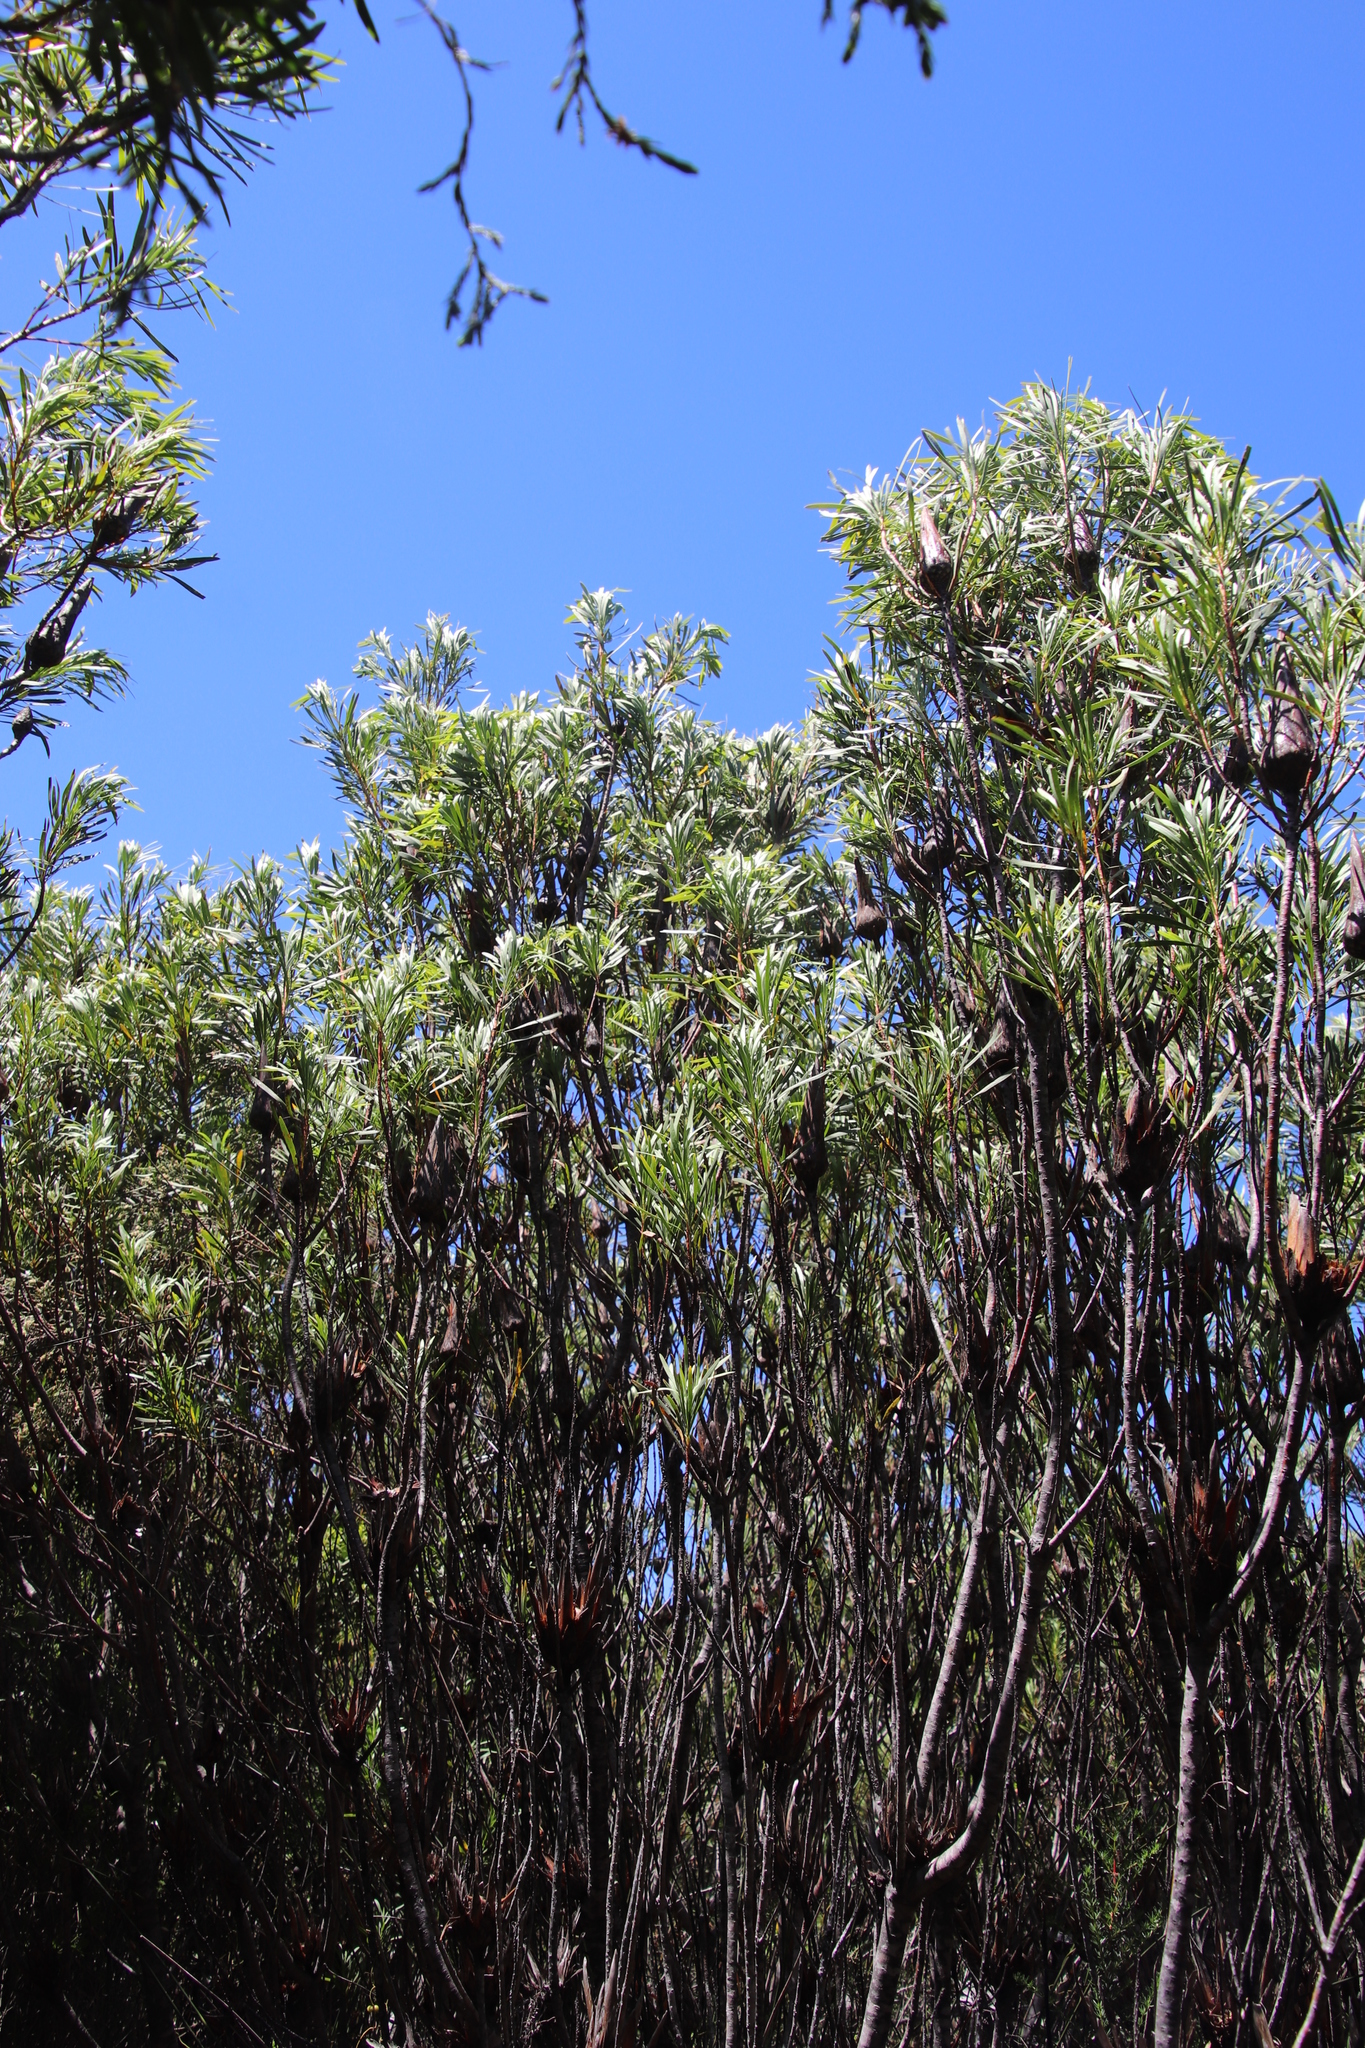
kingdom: Plantae
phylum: Tracheophyta
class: Magnoliopsida
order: Proteales
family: Proteaceae
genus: Protea
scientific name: Protea repens
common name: Sugarbush
